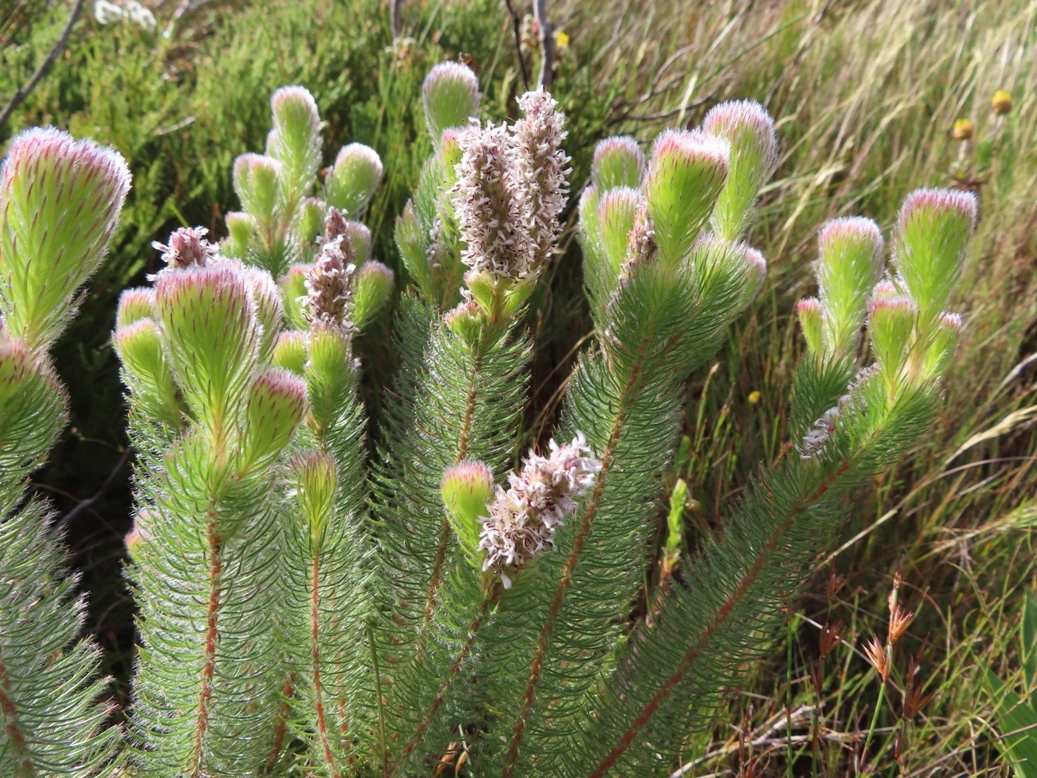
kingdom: Plantae
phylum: Tracheophyta
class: Magnoliopsida
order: Proteales
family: Proteaceae
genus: Spatalla
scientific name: Spatalla parilis
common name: Spike spoon
